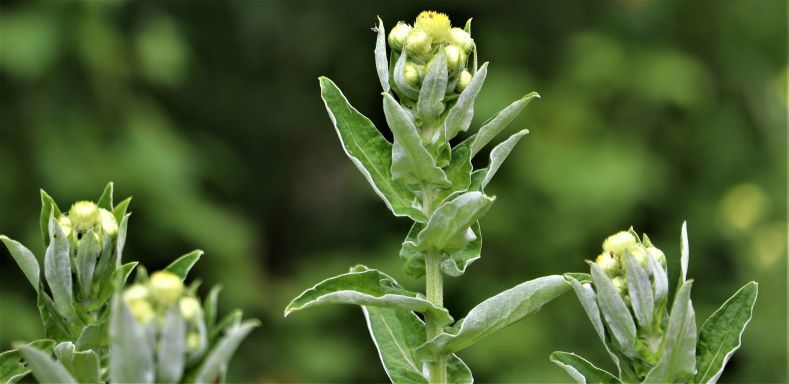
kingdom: Plantae
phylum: Tracheophyta
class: Magnoliopsida
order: Asterales
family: Asteraceae
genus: Helichrysum
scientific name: Helichrysum foetidum
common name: Stinking everlasting
